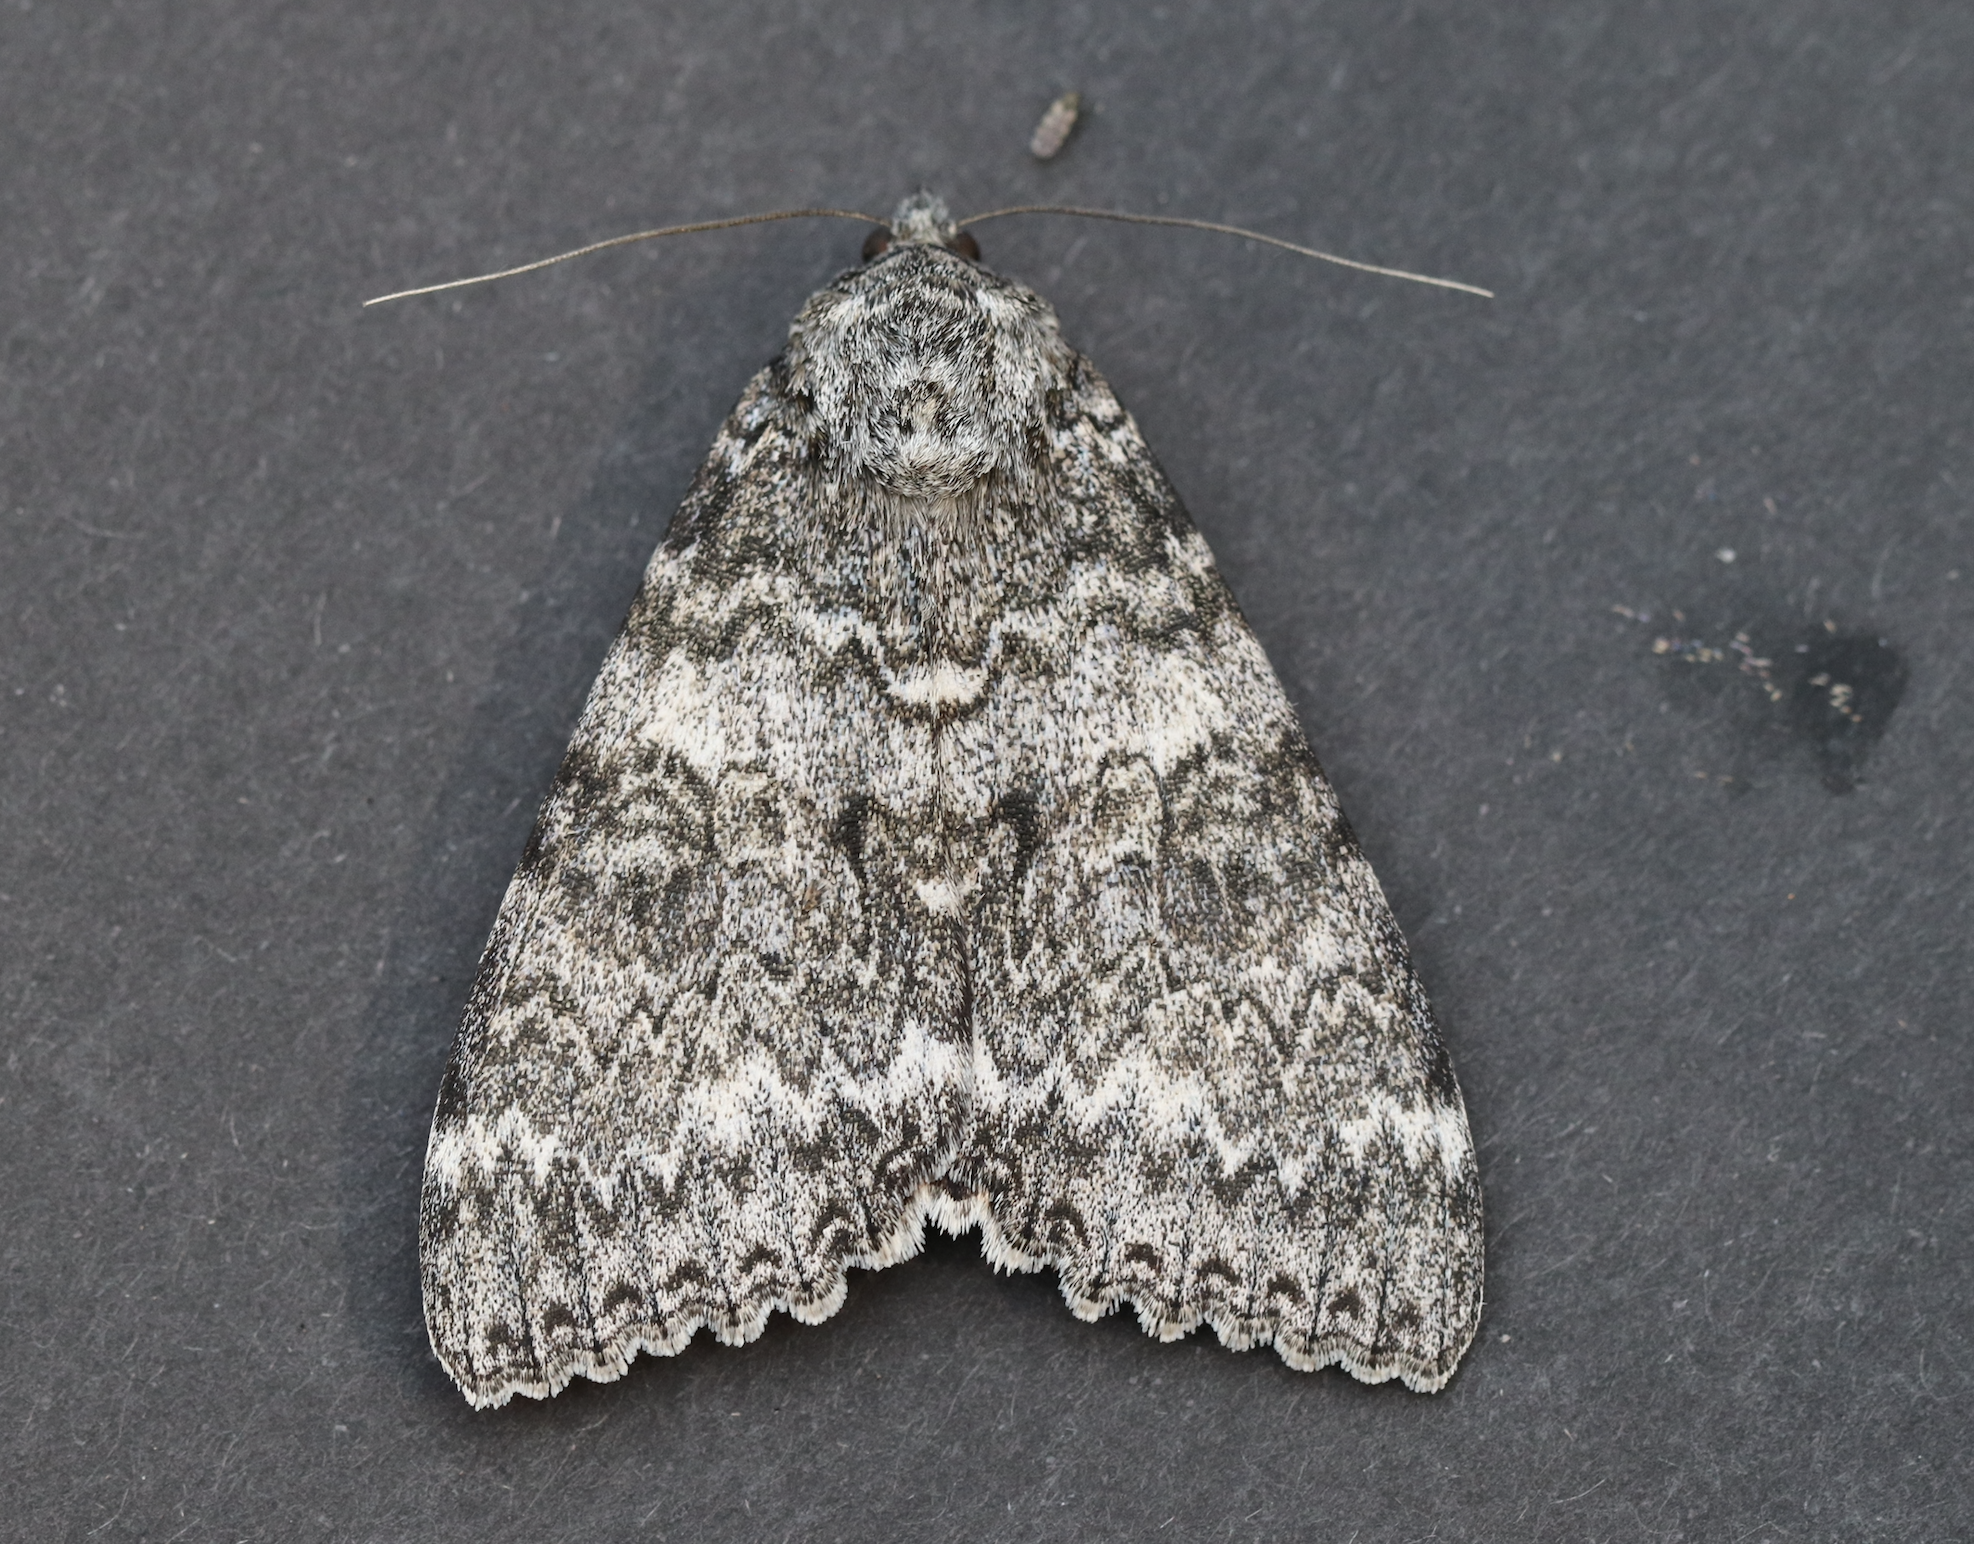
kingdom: Animalia
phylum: Arthropoda
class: Insecta
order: Lepidoptera
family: Erebidae
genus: Catocala
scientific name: Catocala unijuga
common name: Once-married underwing
